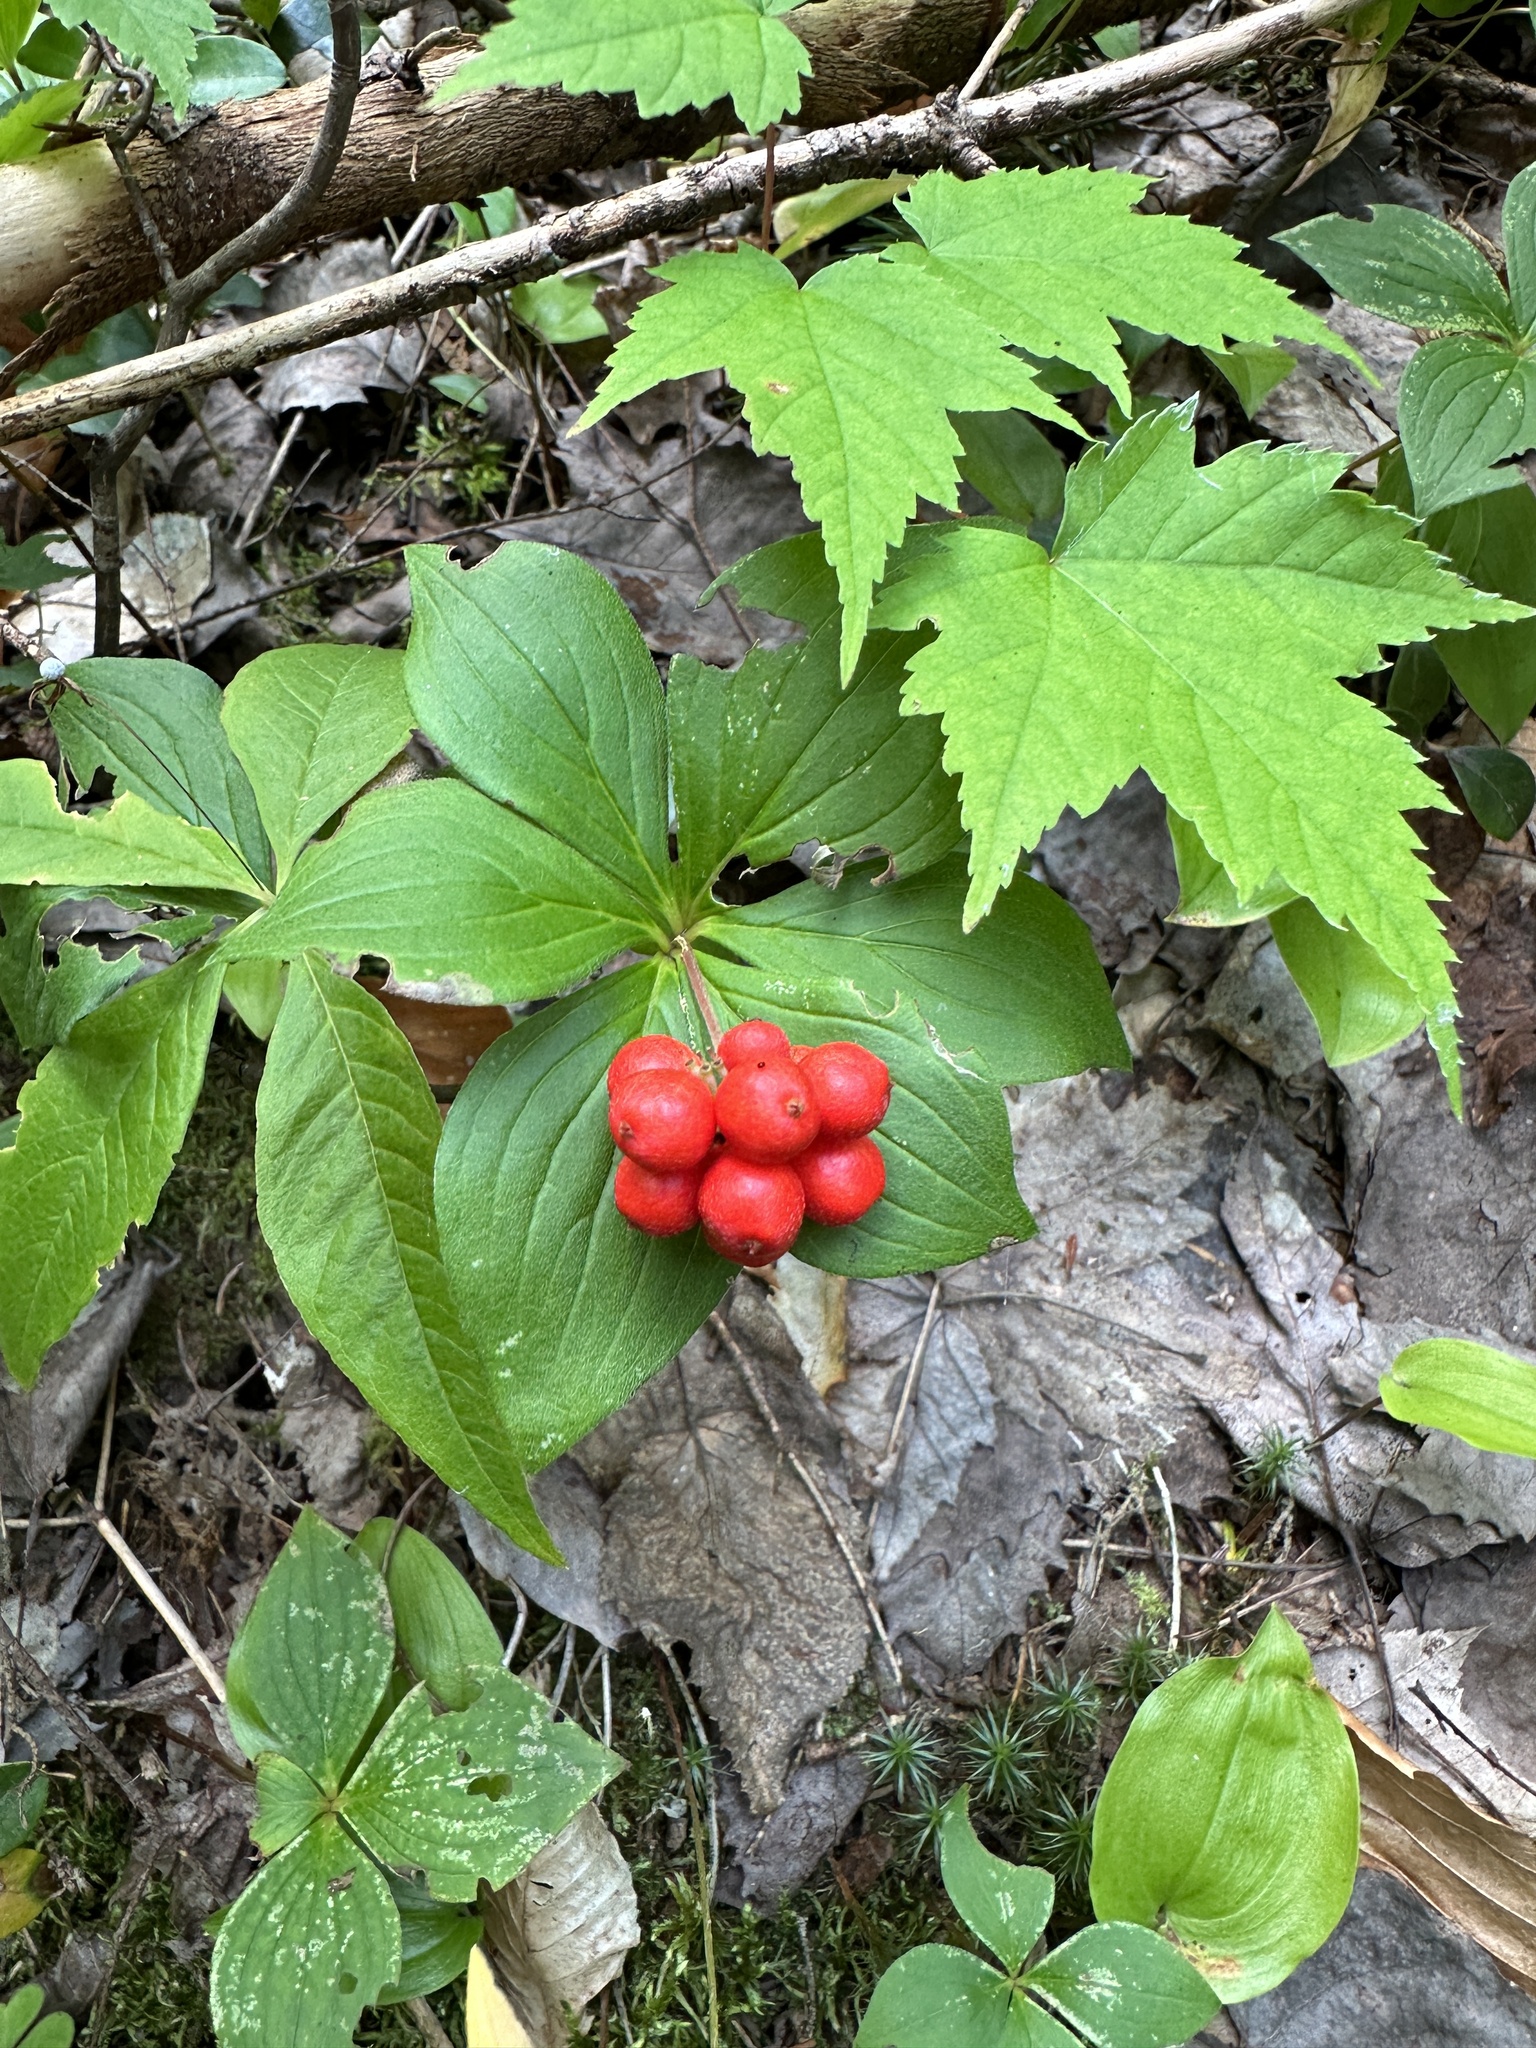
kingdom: Plantae
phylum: Tracheophyta
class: Magnoliopsida
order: Cornales
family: Cornaceae
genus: Cornus
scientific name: Cornus canadensis
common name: Creeping dogwood
